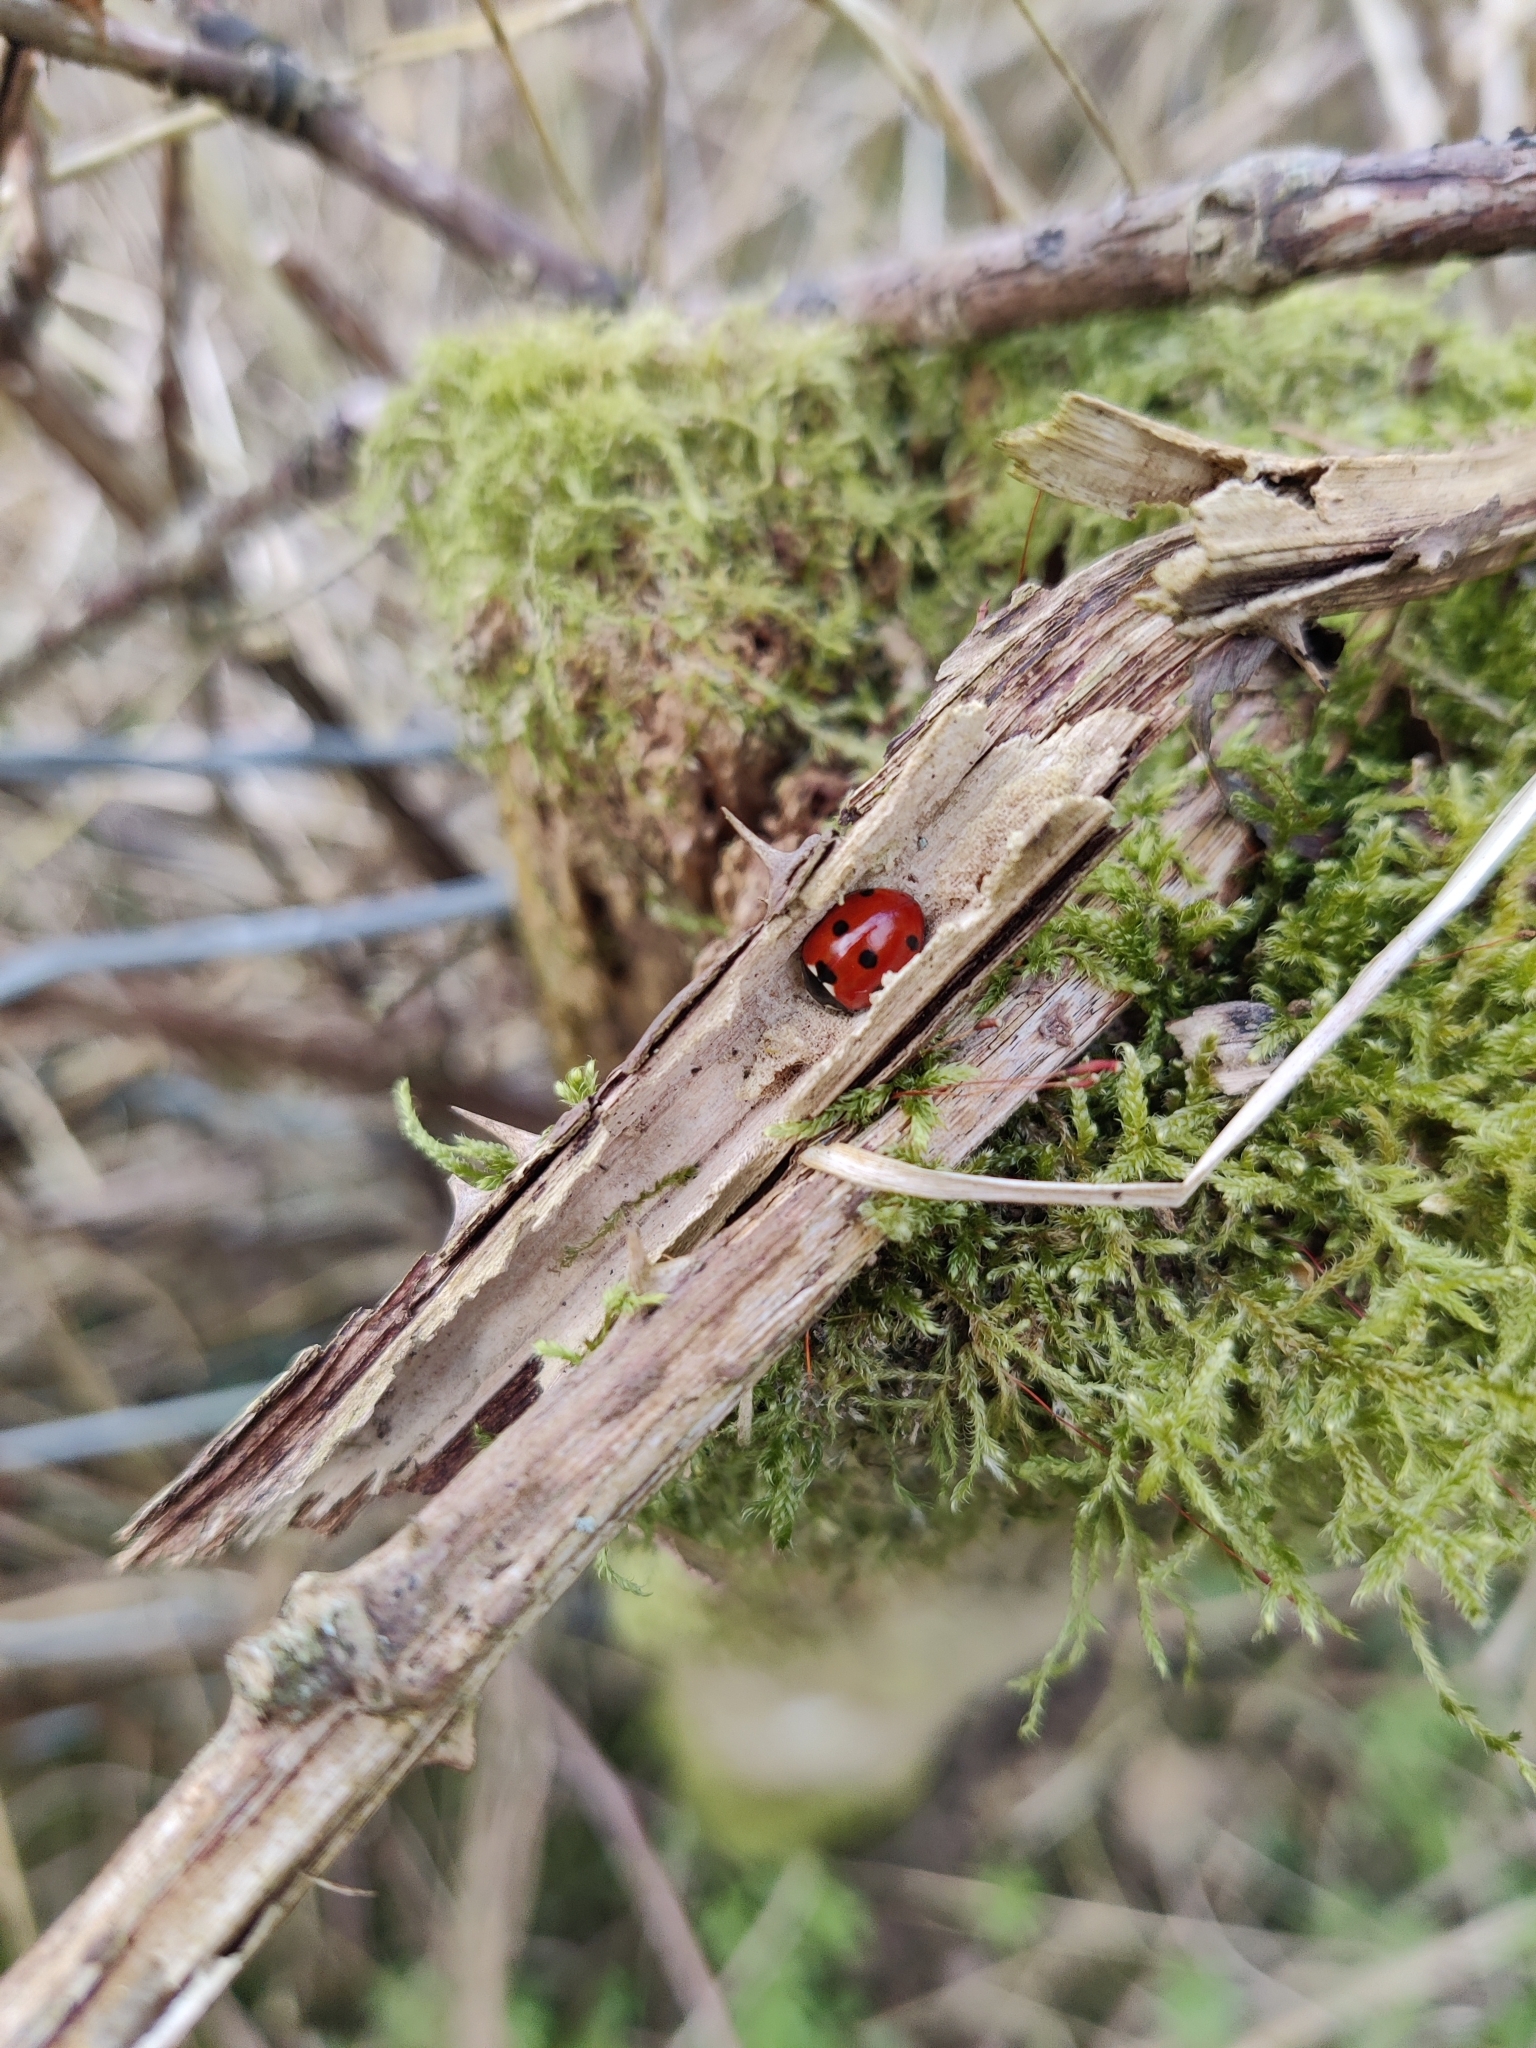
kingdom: Animalia
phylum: Arthropoda
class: Insecta
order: Coleoptera
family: Coccinellidae
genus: Coccinella
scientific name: Coccinella septempunctata
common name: Sevenspotted lady beetle
